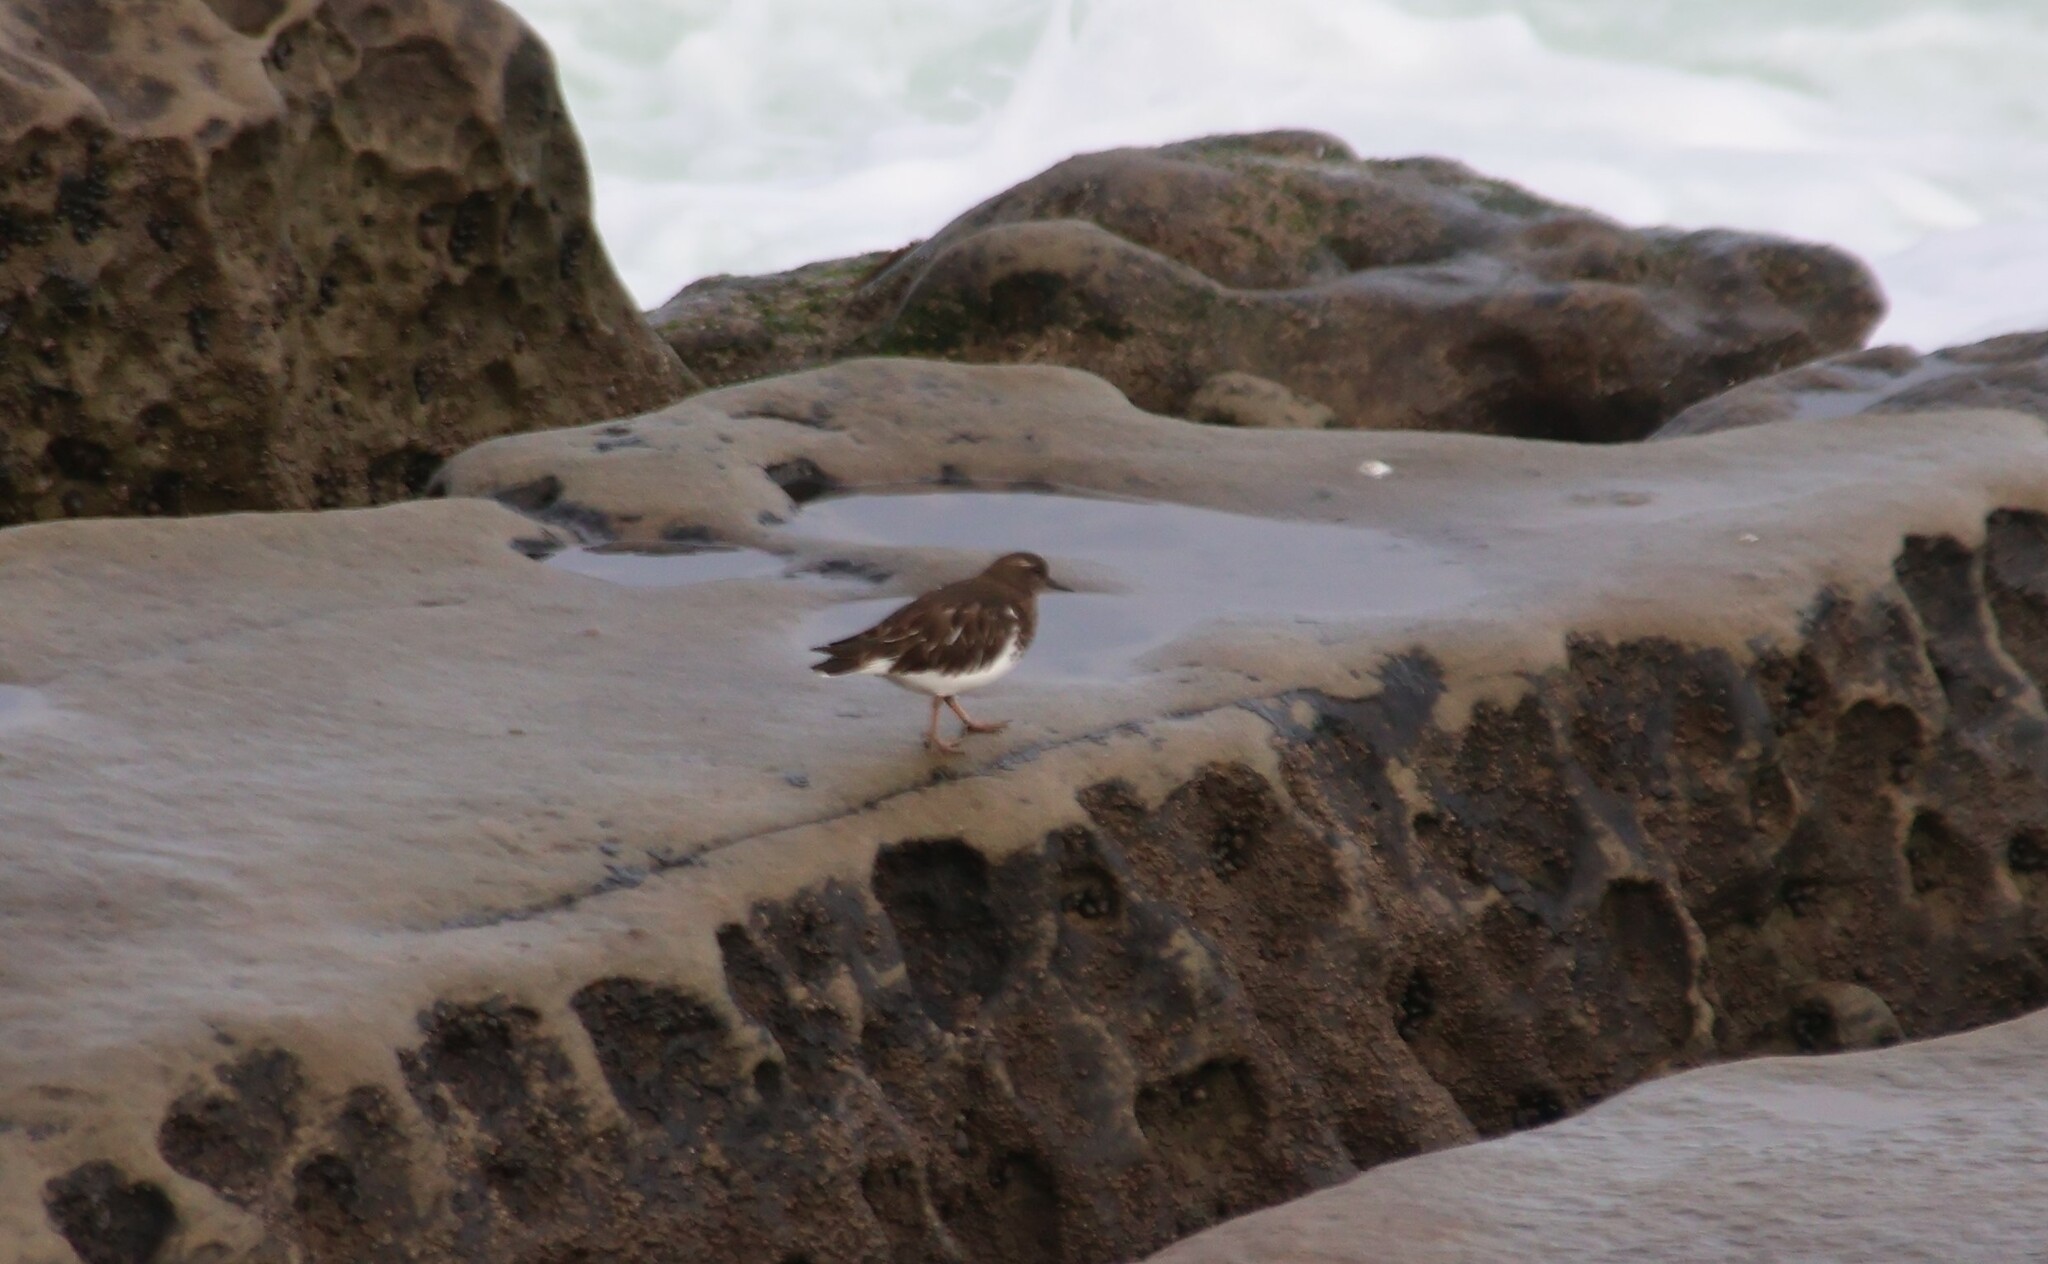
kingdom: Animalia
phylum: Chordata
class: Aves
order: Charadriiformes
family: Scolopacidae
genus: Arenaria
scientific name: Arenaria melanocephala
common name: Black turnstone
